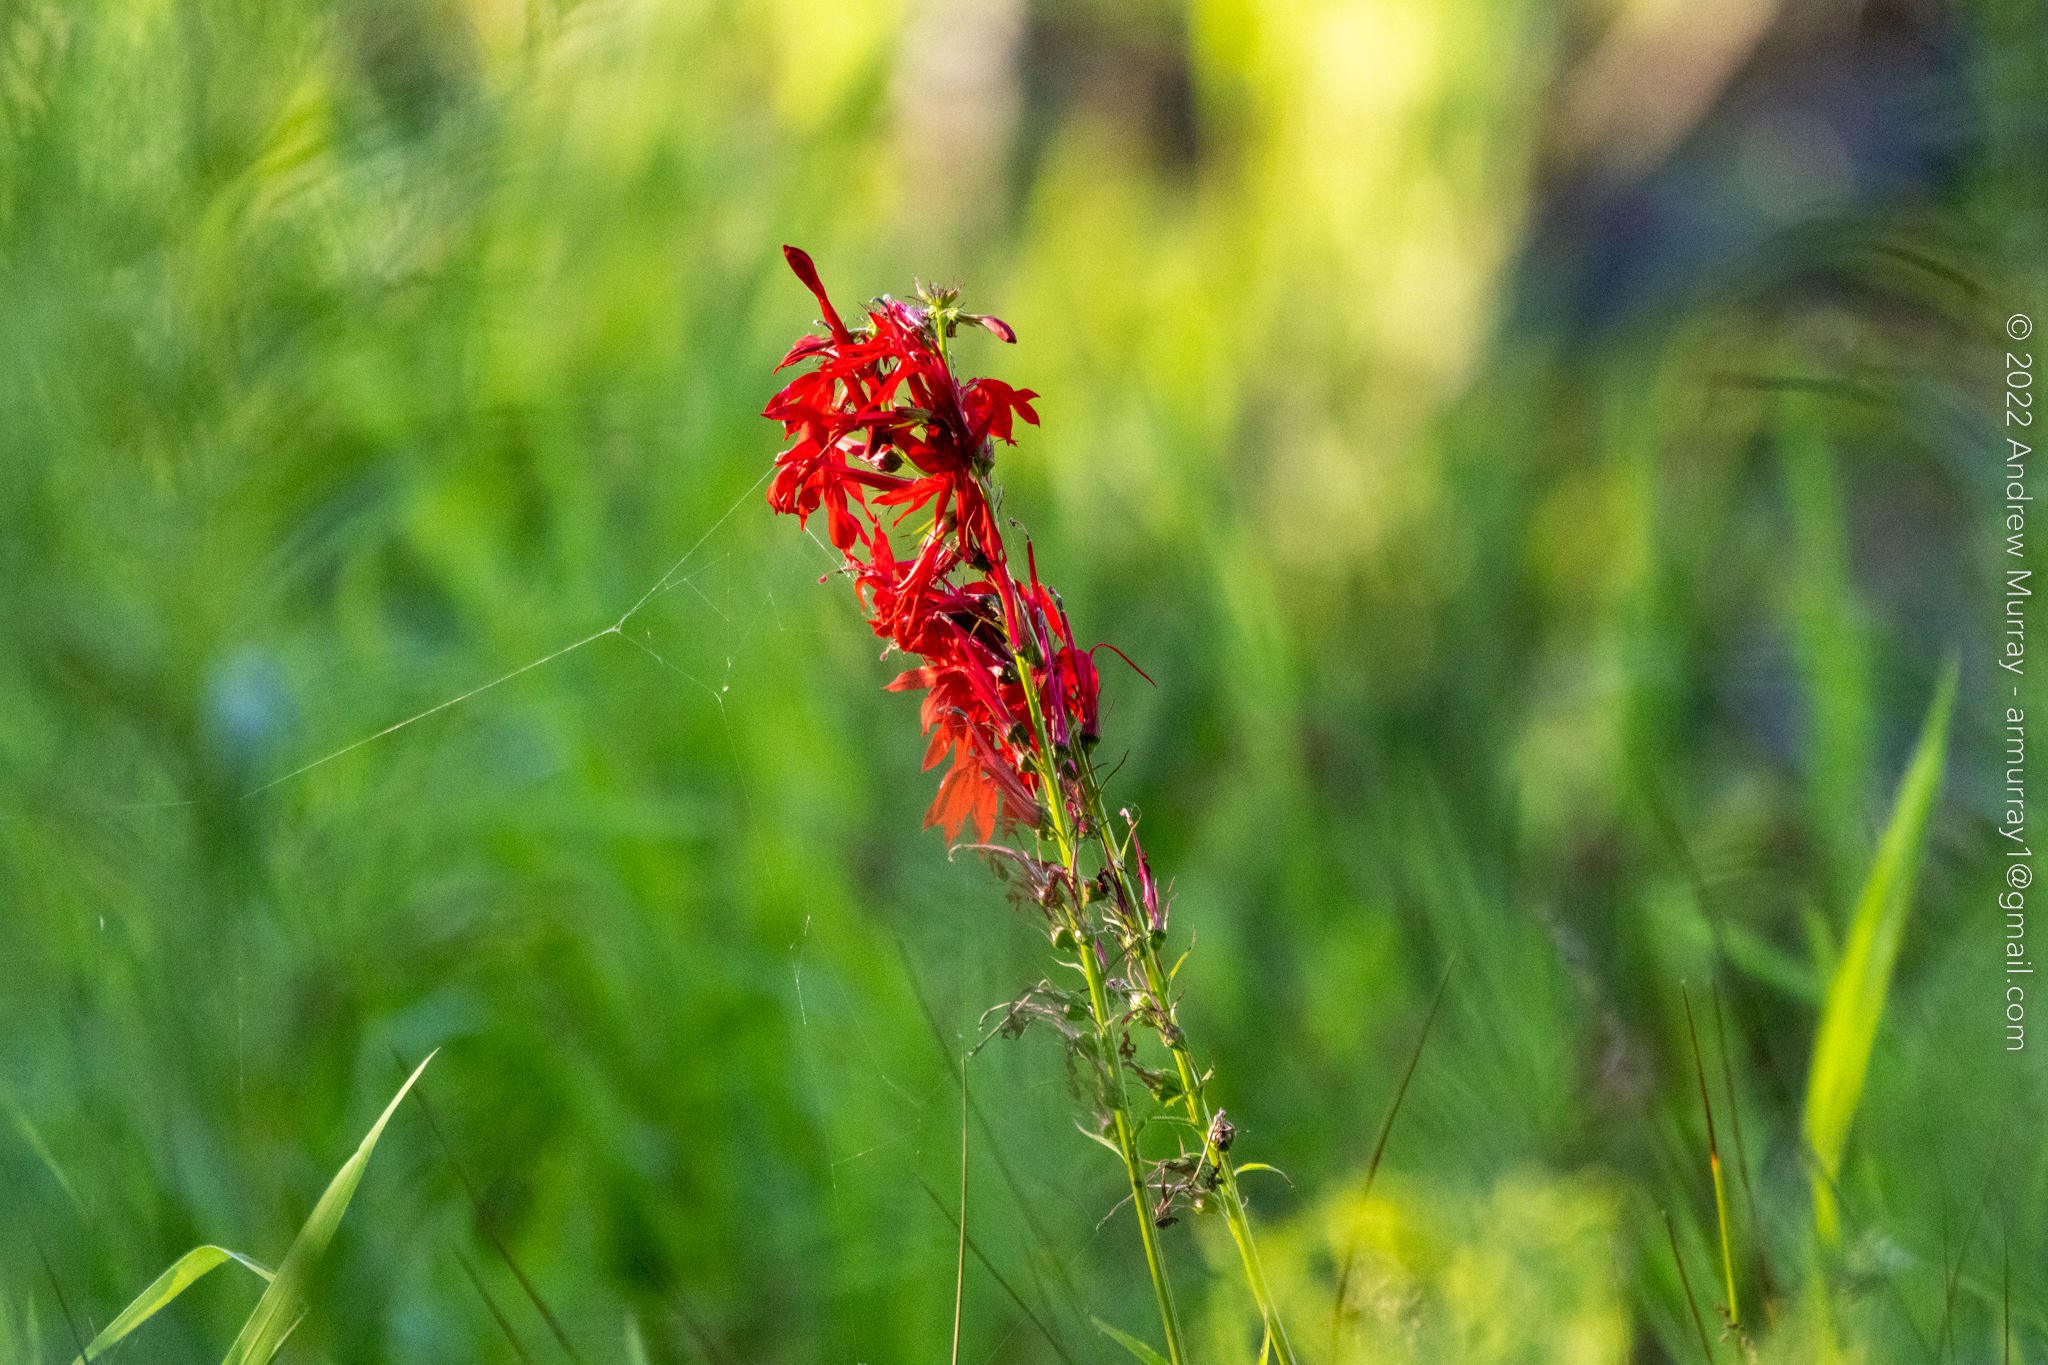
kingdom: Plantae
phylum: Tracheophyta
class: Magnoliopsida
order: Asterales
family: Campanulaceae
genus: Lobelia
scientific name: Lobelia cardinalis
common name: Cardinal flower
